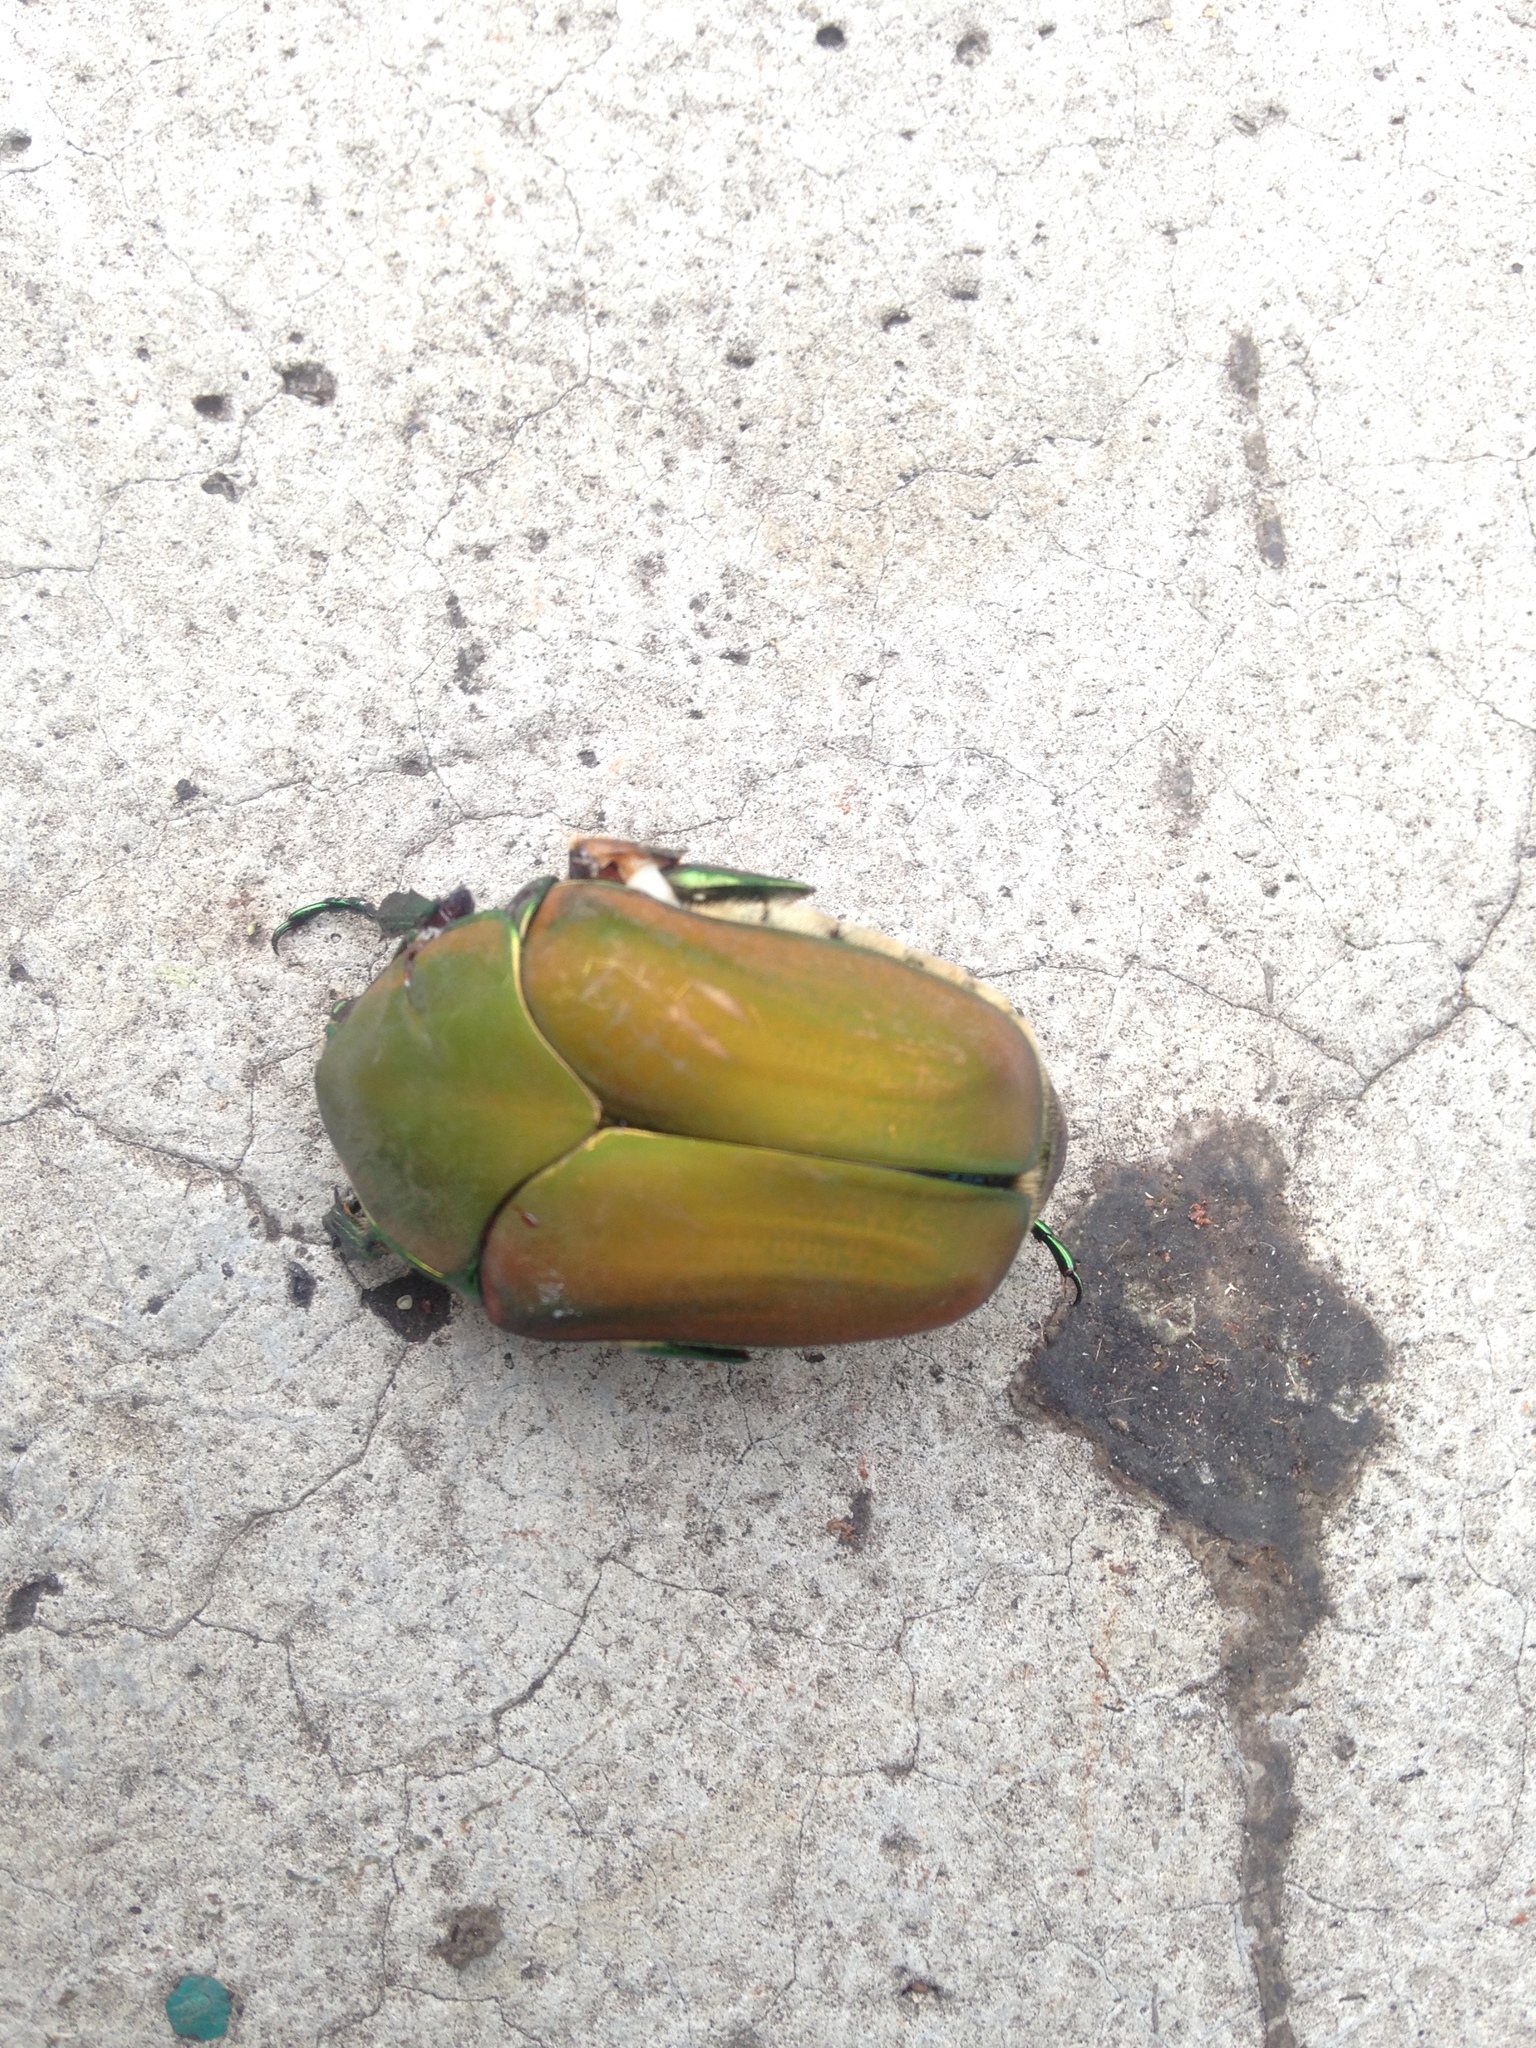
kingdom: Animalia
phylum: Arthropoda
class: Insecta
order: Coleoptera
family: Scarabaeidae
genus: Cotinis
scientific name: Cotinis mutabilis
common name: Figeater beetle
